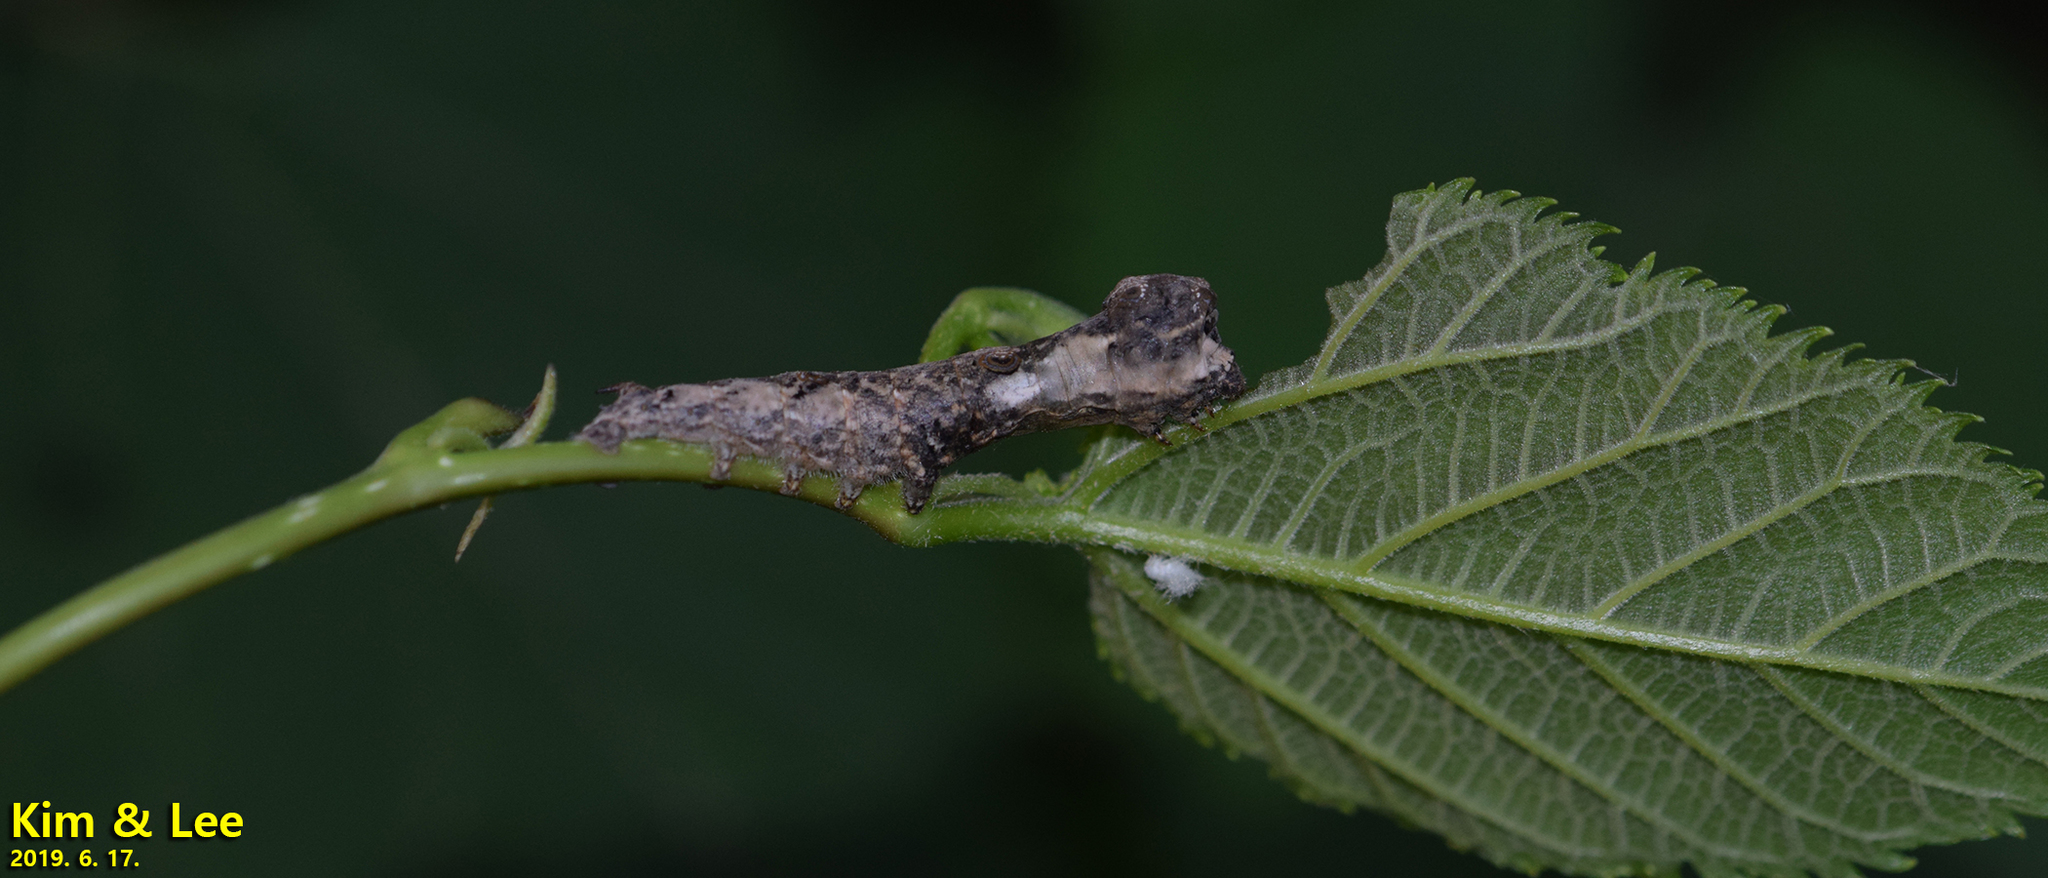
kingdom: Animalia
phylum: Arthropoda
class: Insecta
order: Lepidoptera
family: Bombycidae
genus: Bombyx
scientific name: Bombyx mandarina
